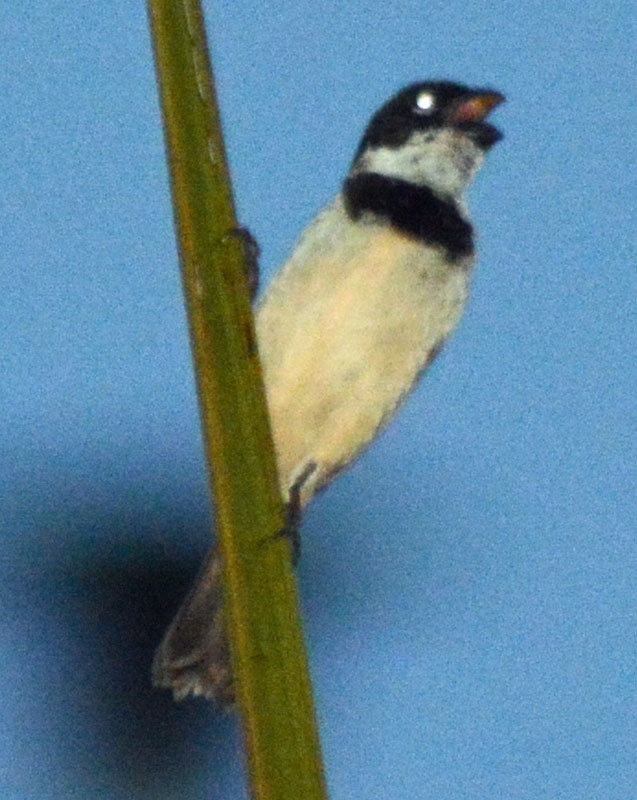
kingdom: Animalia
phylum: Chordata
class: Aves
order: Passeriformes
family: Thraupidae
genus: Sporophila
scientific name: Sporophila morelleti
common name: Morelet's seedeater
